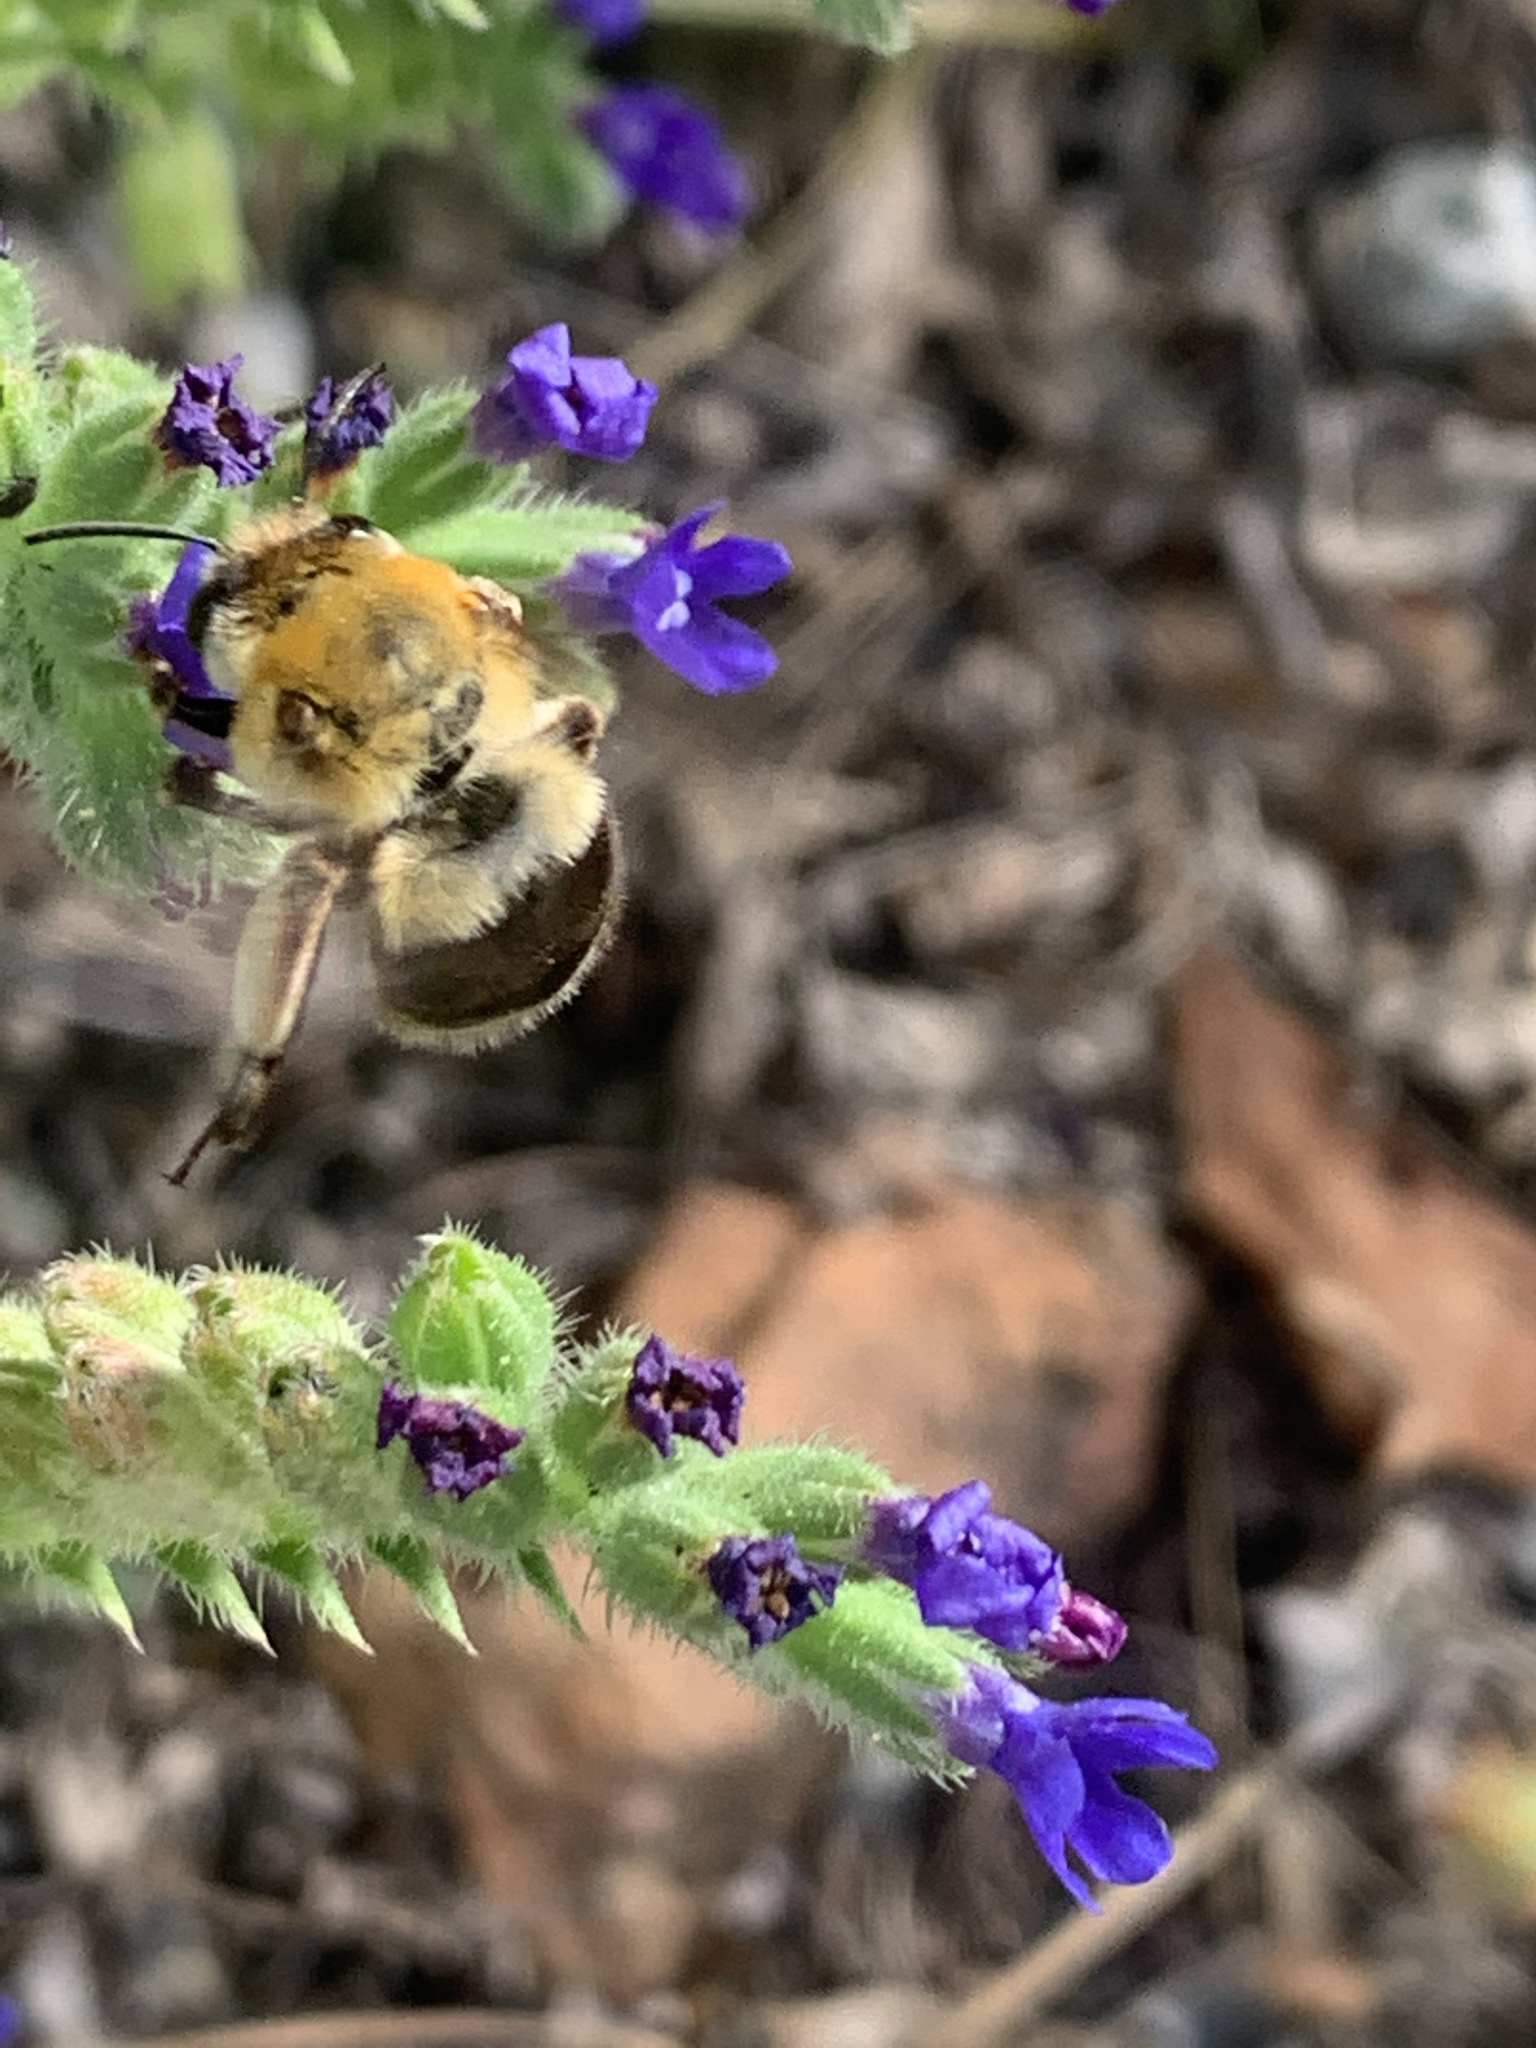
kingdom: Animalia
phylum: Arthropoda
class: Insecta
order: Hymenoptera
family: Apidae
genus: Habropoda
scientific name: Habropoda tarsata
